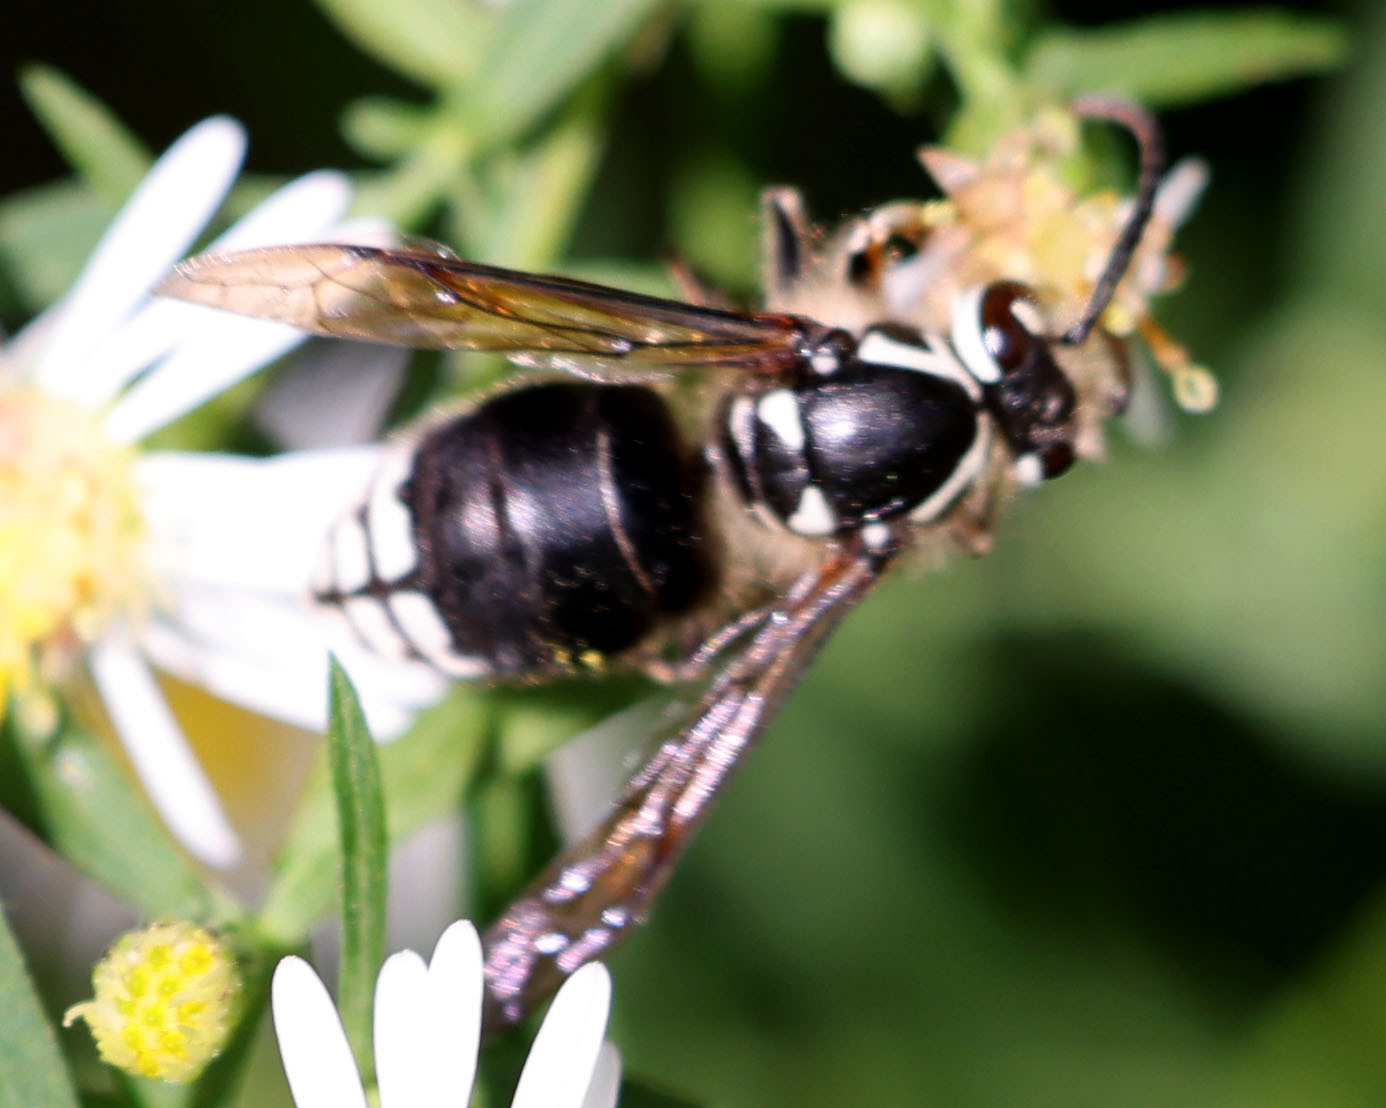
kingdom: Animalia
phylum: Arthropoda
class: Insecta
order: Hymenoptera
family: Vespidae
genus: Dolichovespula
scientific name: Dolichovespula maculata
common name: Bald-faced hornet
